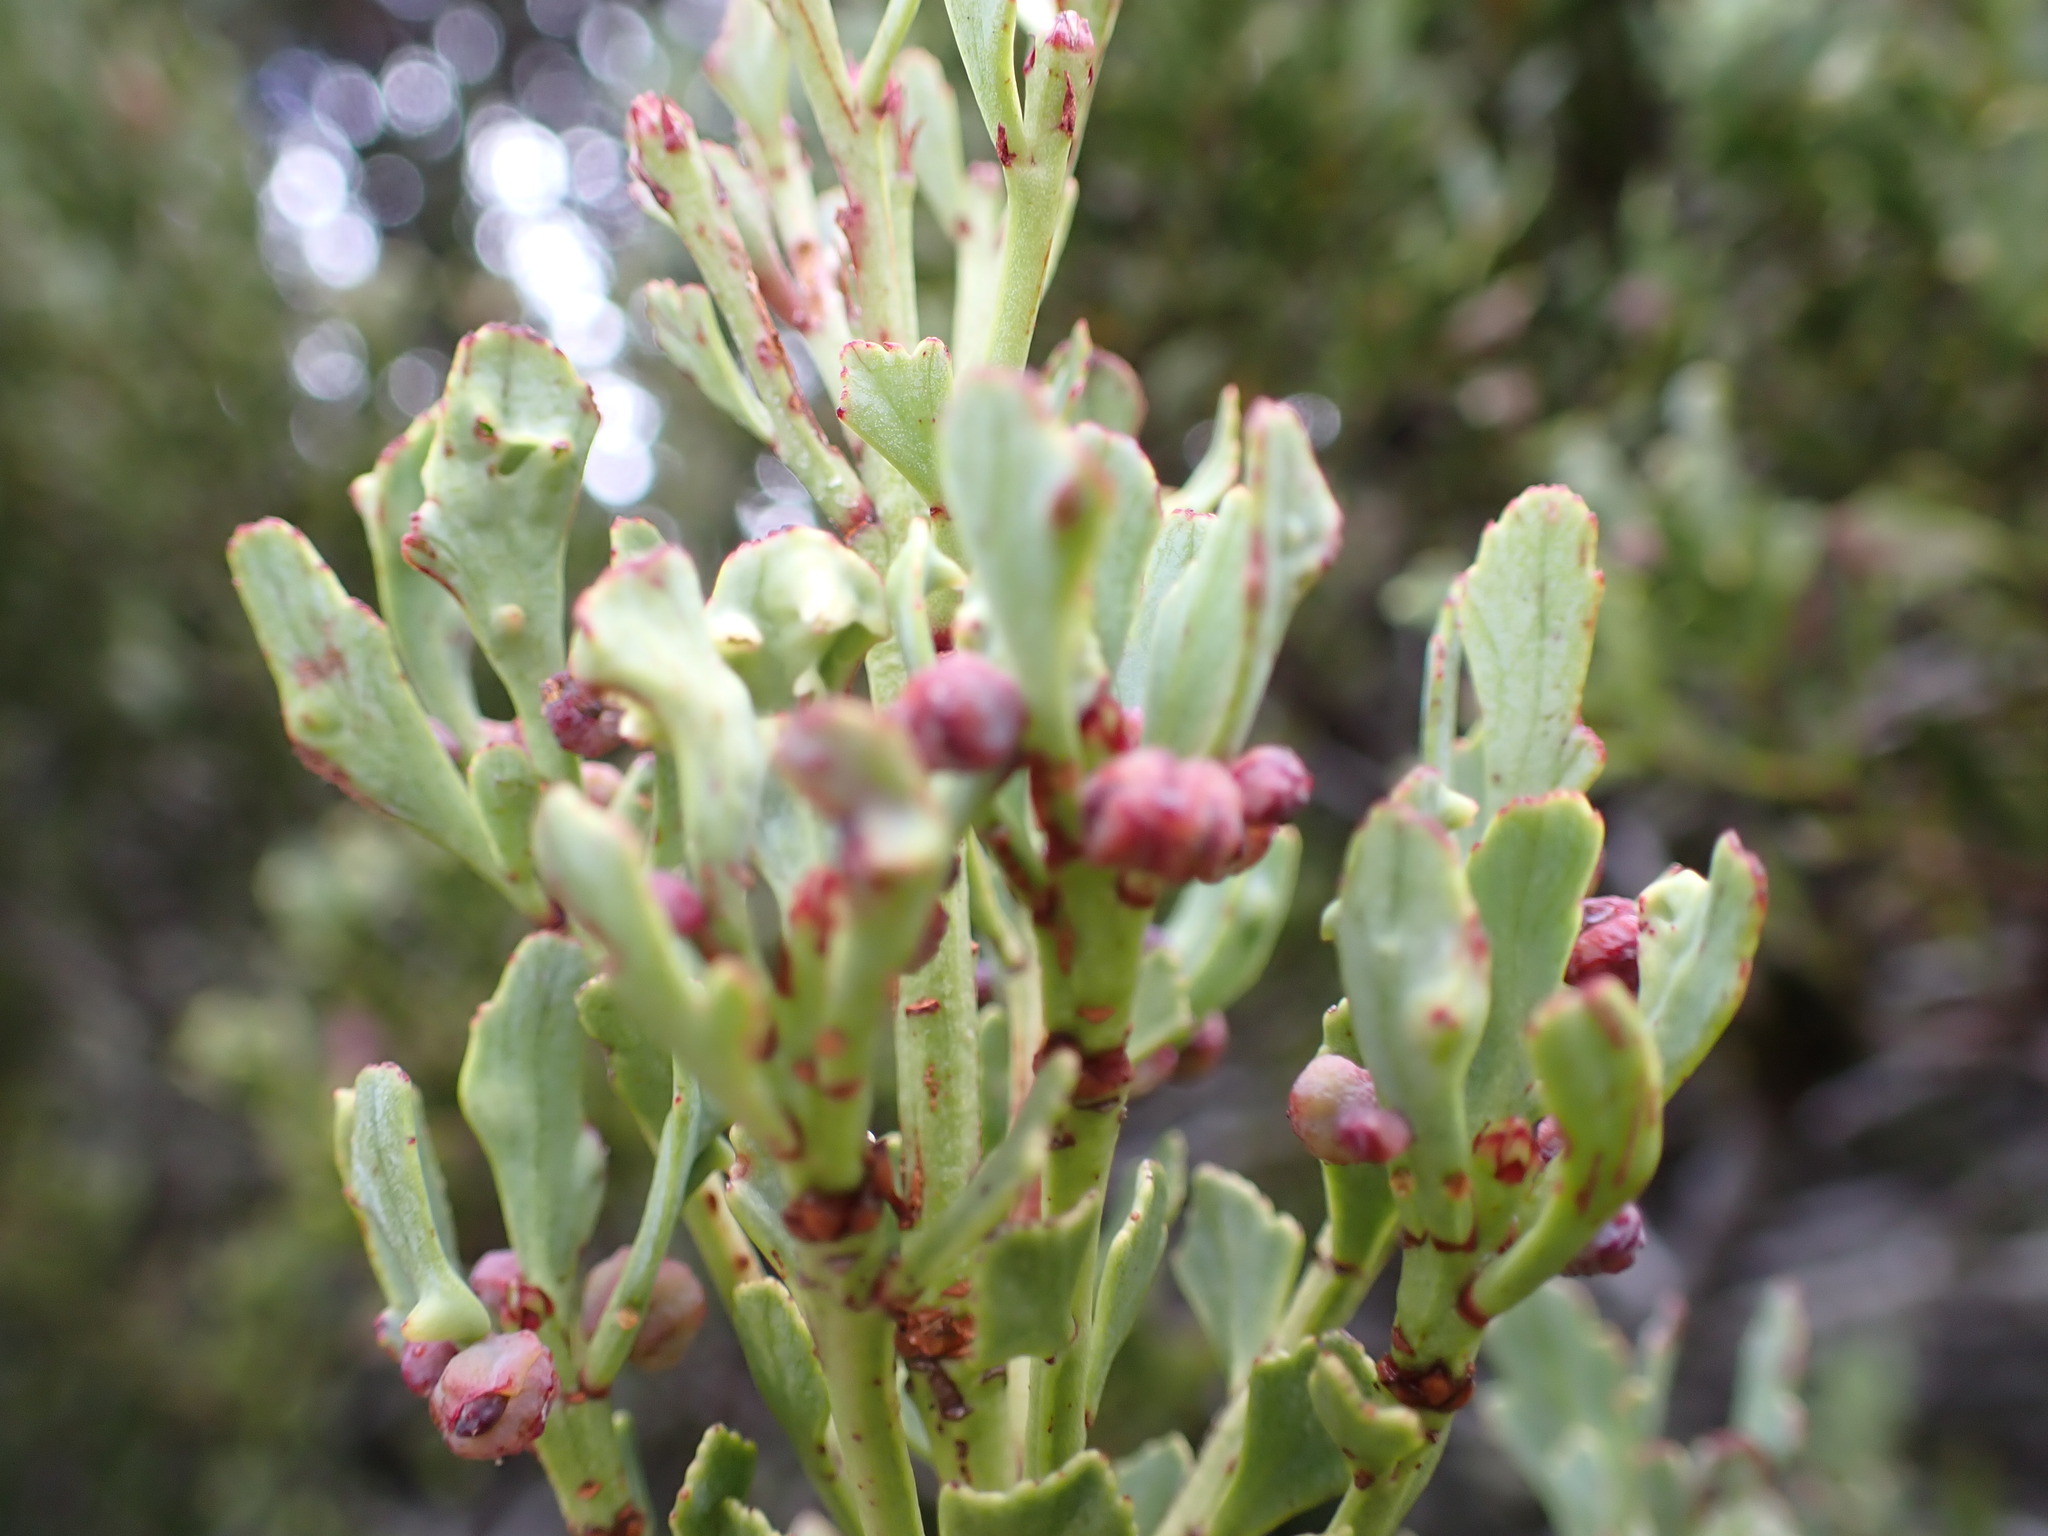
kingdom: Plantae
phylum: Tracheophyta
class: Pinopsida
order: Pinales
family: Phyllocladaceae
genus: Phyllocladus
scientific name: Phyllocladus trichomanoides
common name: Celery pine
